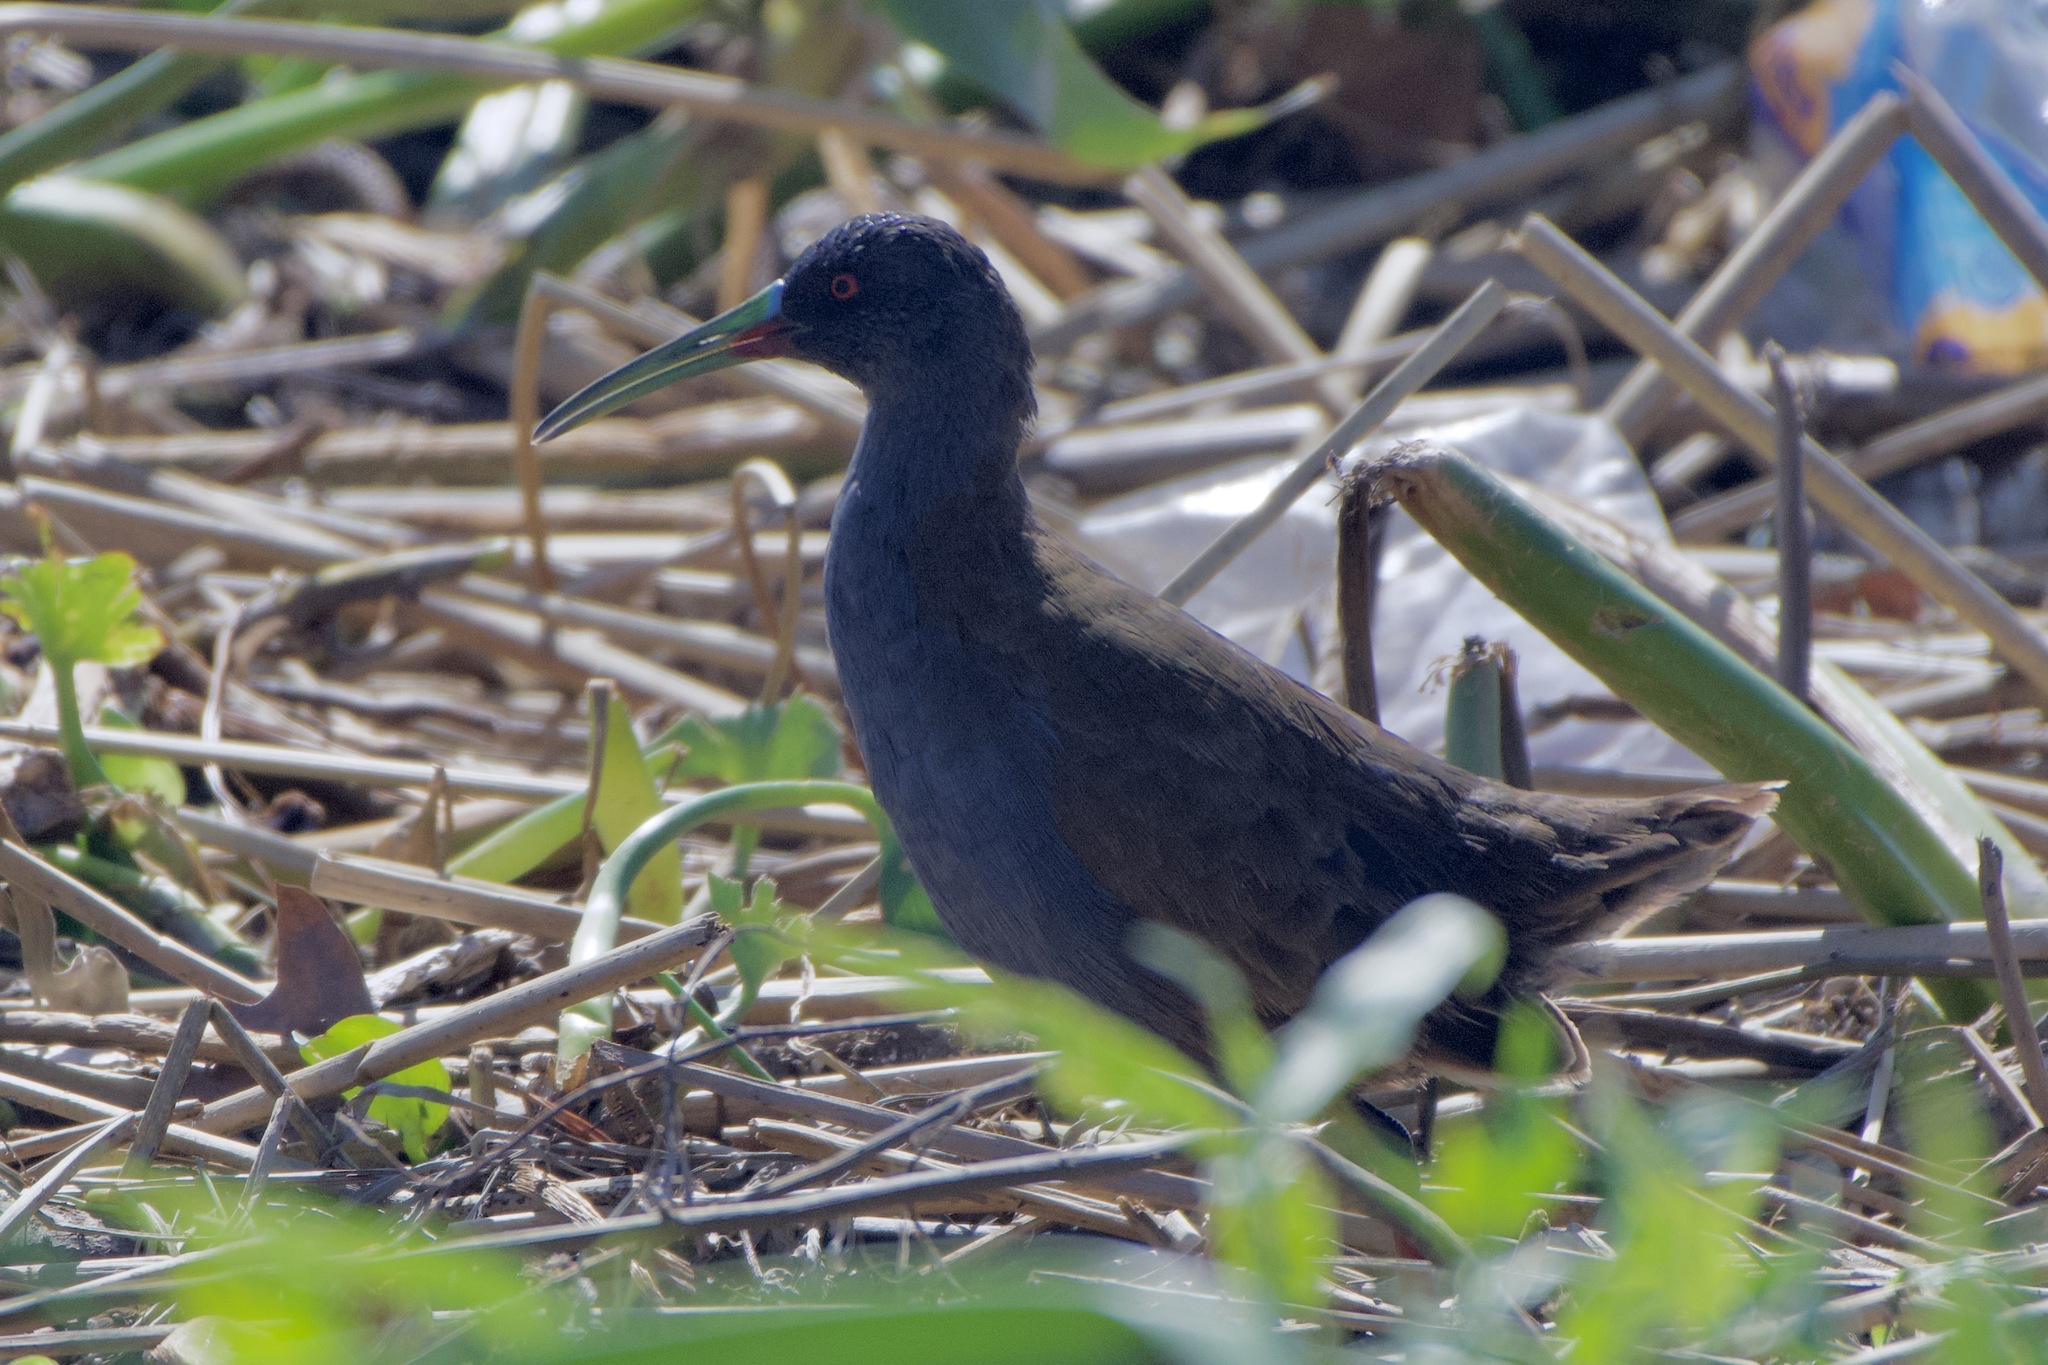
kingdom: Animalia
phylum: Chordata
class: Aves
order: Gruiformes
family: Rallidae
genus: Pardirallus
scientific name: Pardirallus sanguinolentus
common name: Plumbeous rail
